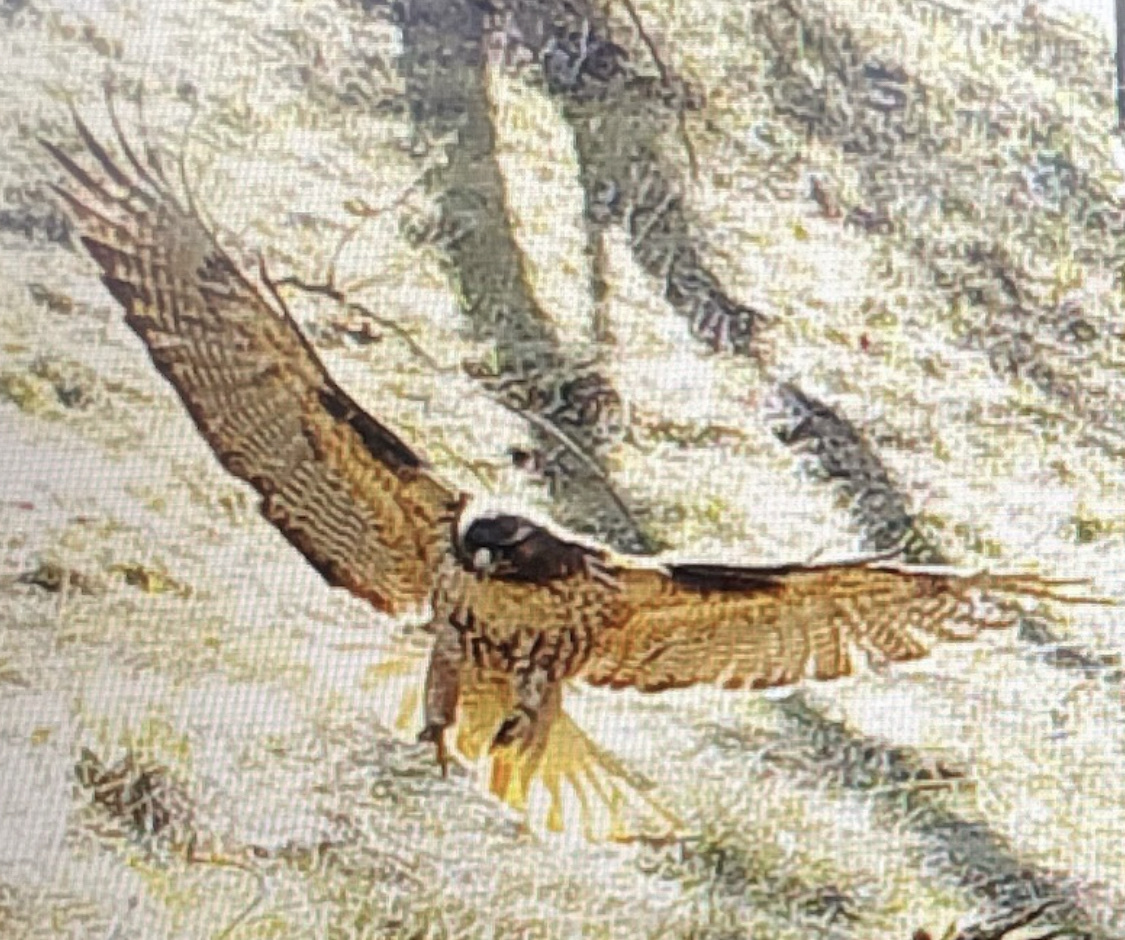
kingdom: Animalia
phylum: Chordata
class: Aves
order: Accipitriformes
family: Accipitridae
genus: Buteo
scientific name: Buteo jamaicensis
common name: Red-tailed hawk
